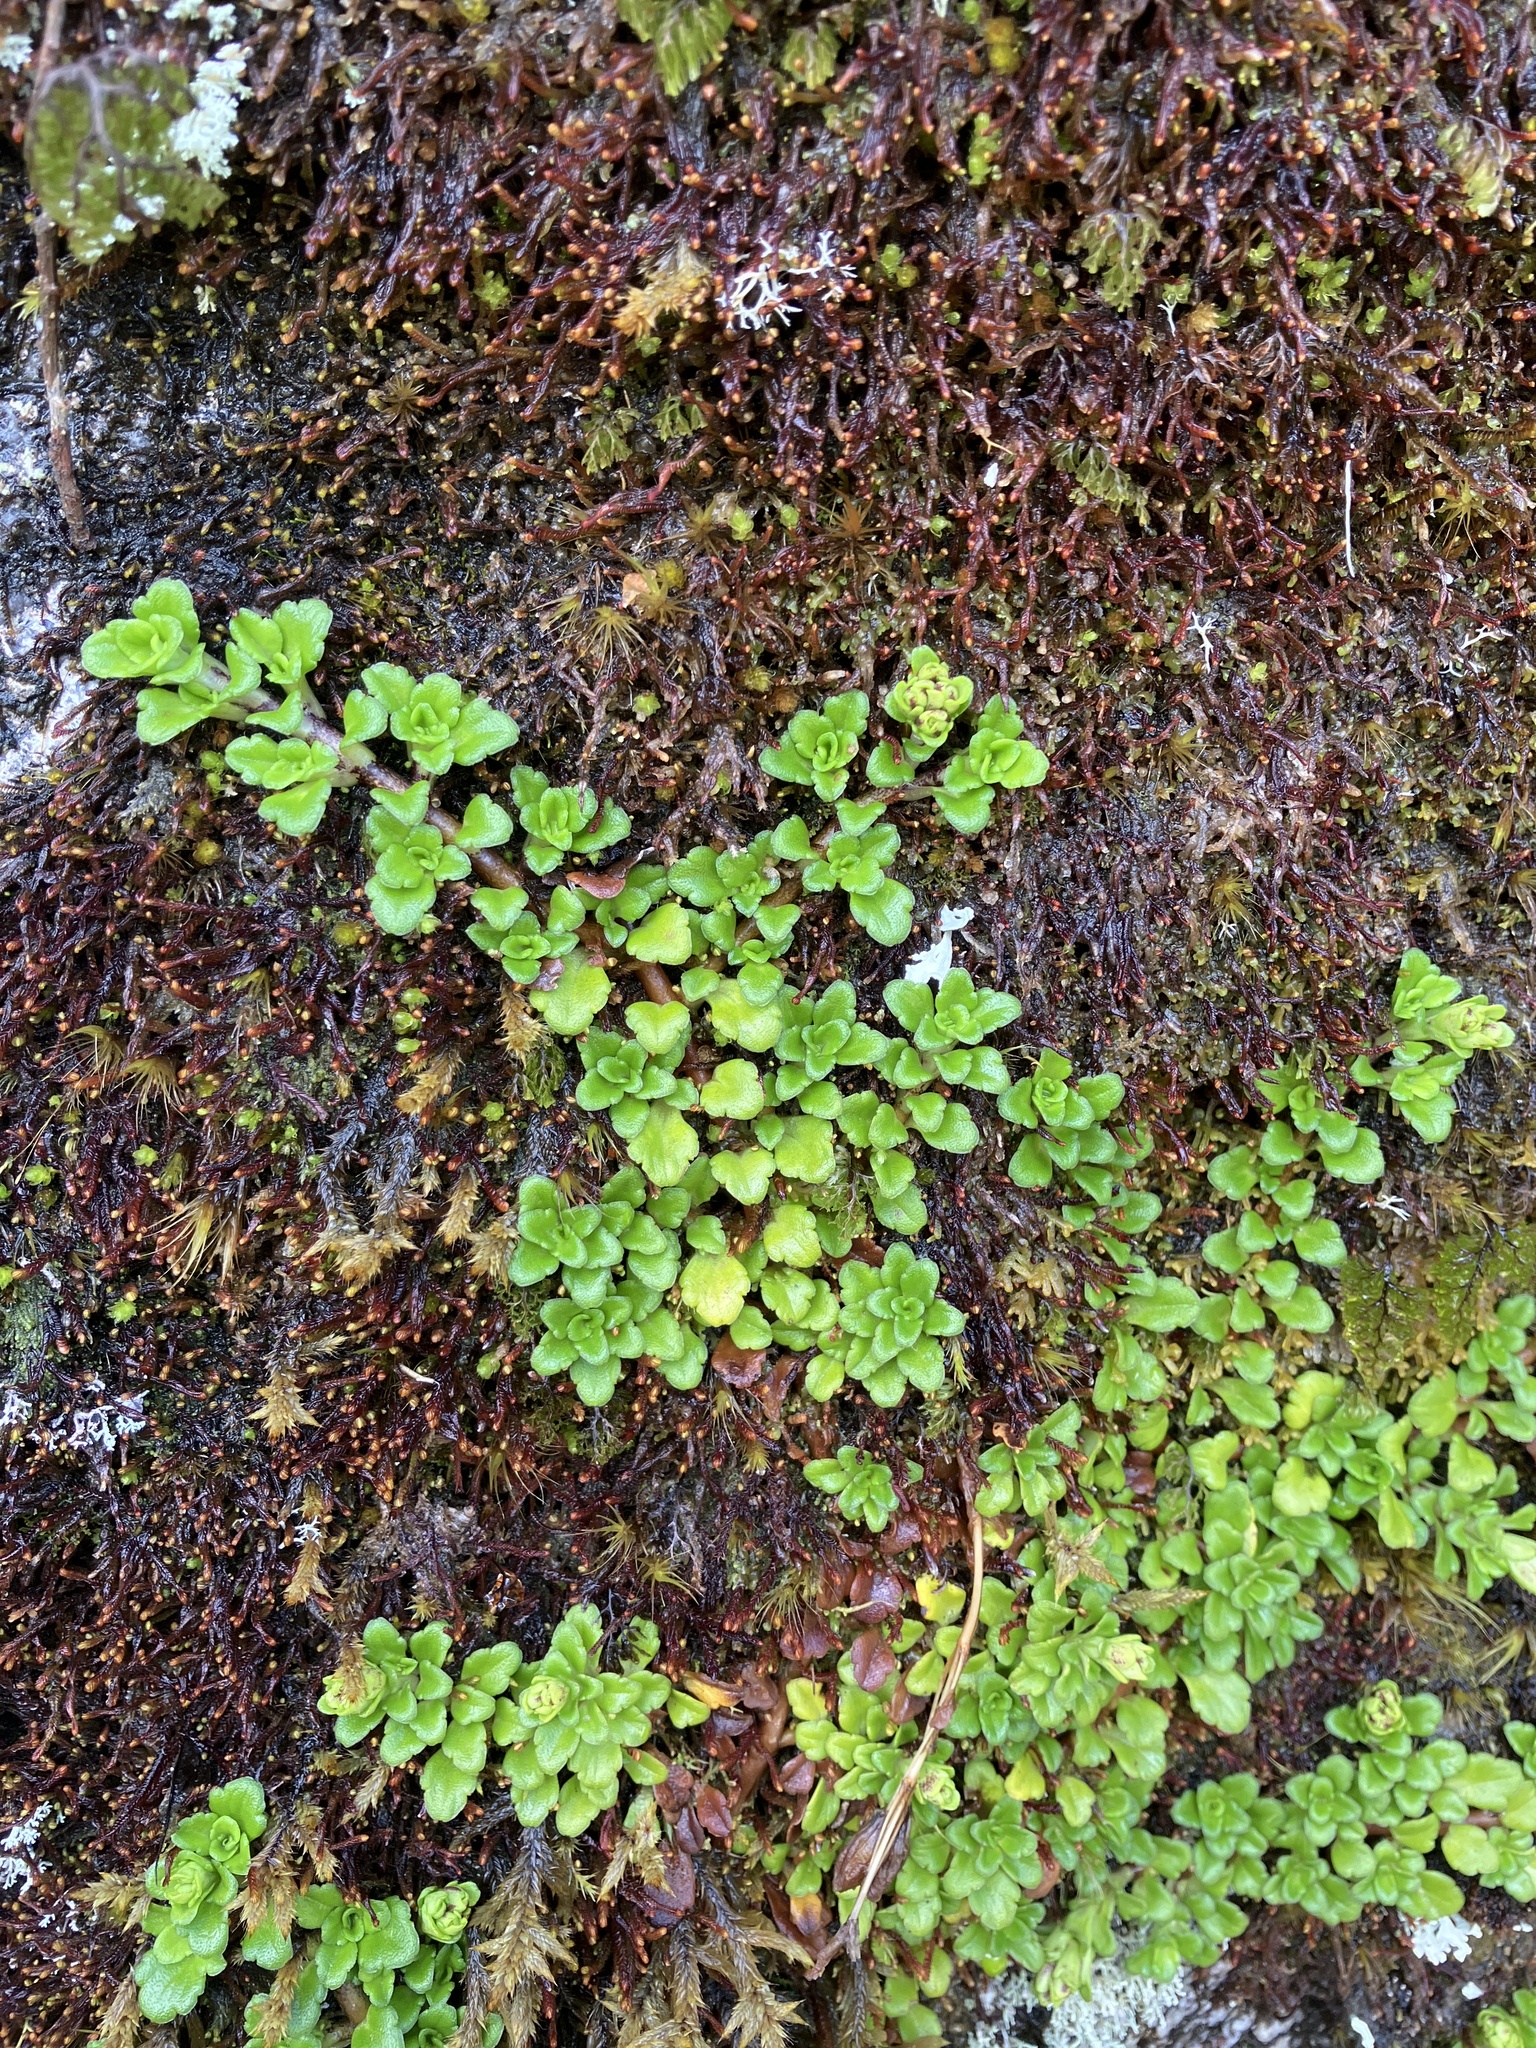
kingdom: Plantae
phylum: Tracheophyta
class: Magnoliopsida
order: Lamiales
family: Plantaginaceae
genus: Ourisia
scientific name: Ourisia caespitosa
